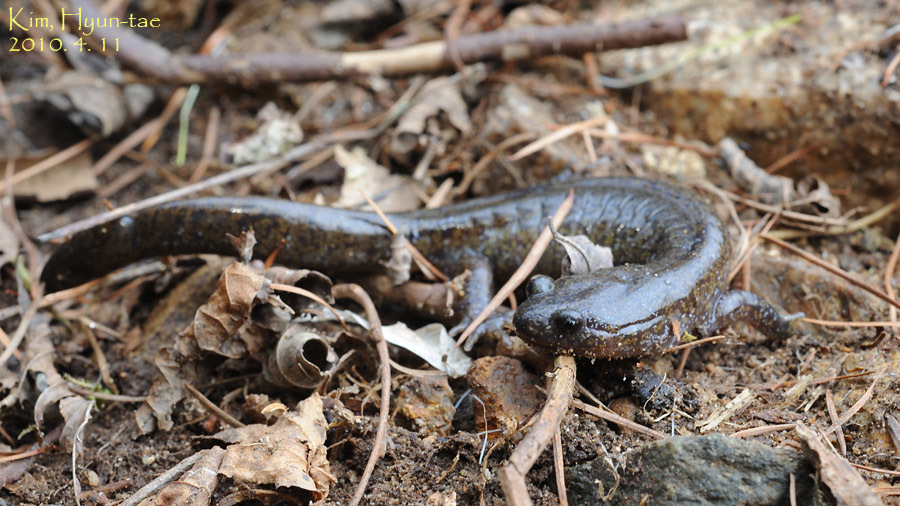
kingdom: Animalia
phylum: Chordata
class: Amphibia
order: Caudata
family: Hynobiidae
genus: Hynobius
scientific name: Hynobius leechii
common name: Gensan salamander
